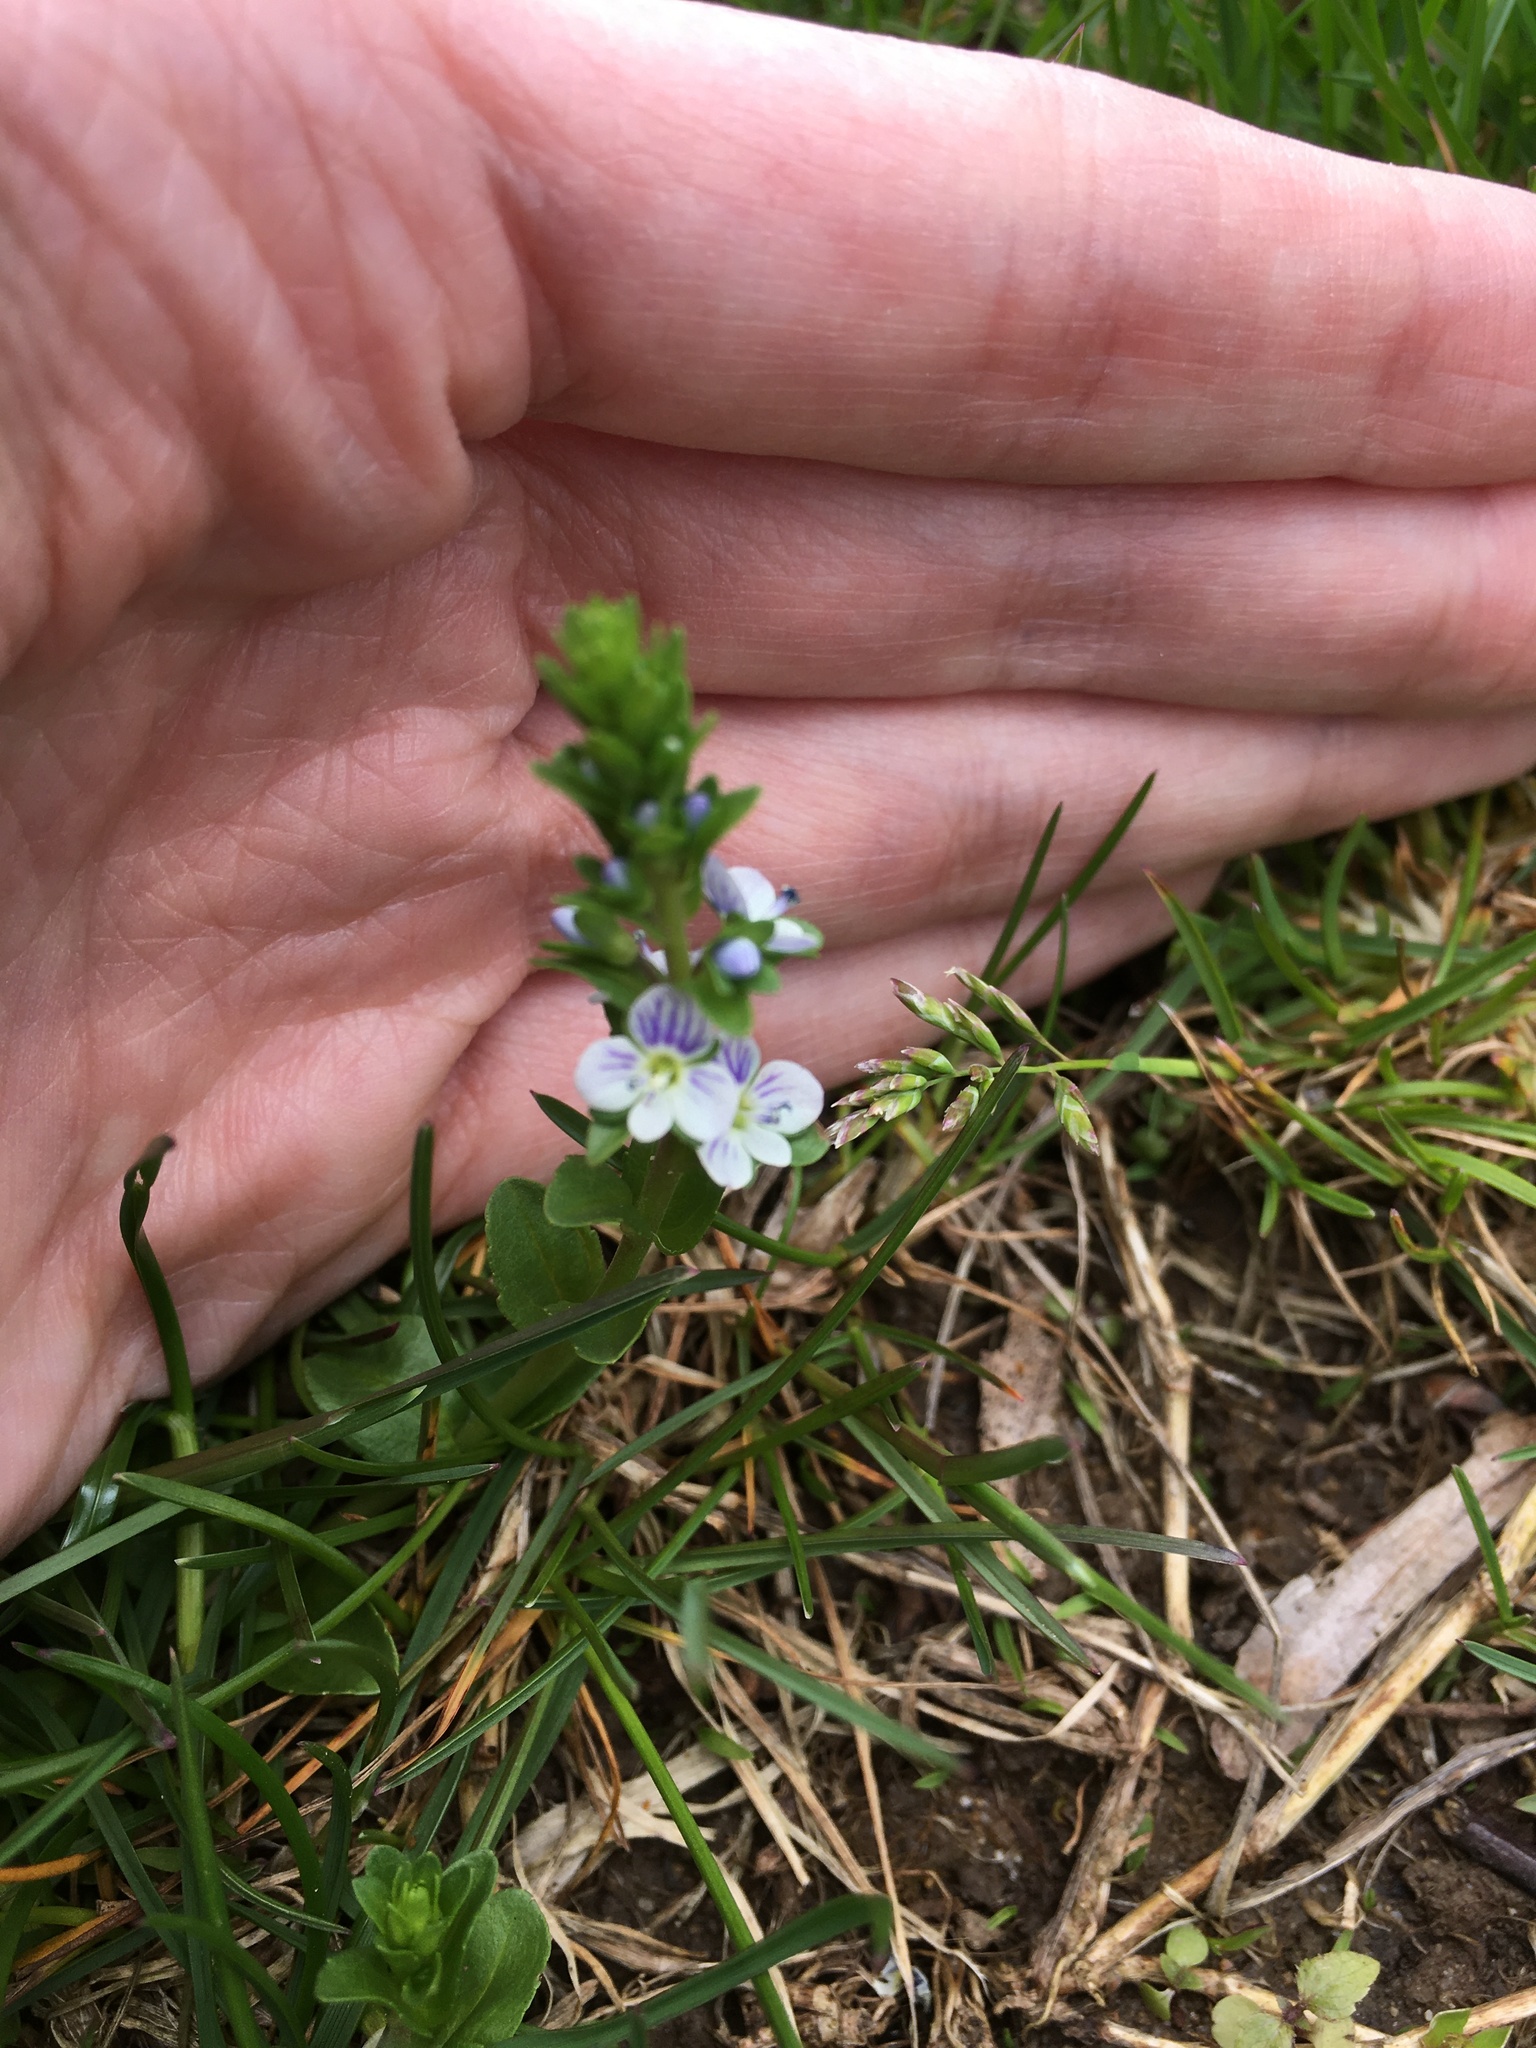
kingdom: Plantae
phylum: Tracheophyta
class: Magnoliopsida
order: Lamiales
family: Plantaginaceae
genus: Veronica
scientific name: Veronica serpyllifolia
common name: Thyme-leaved speedwell
